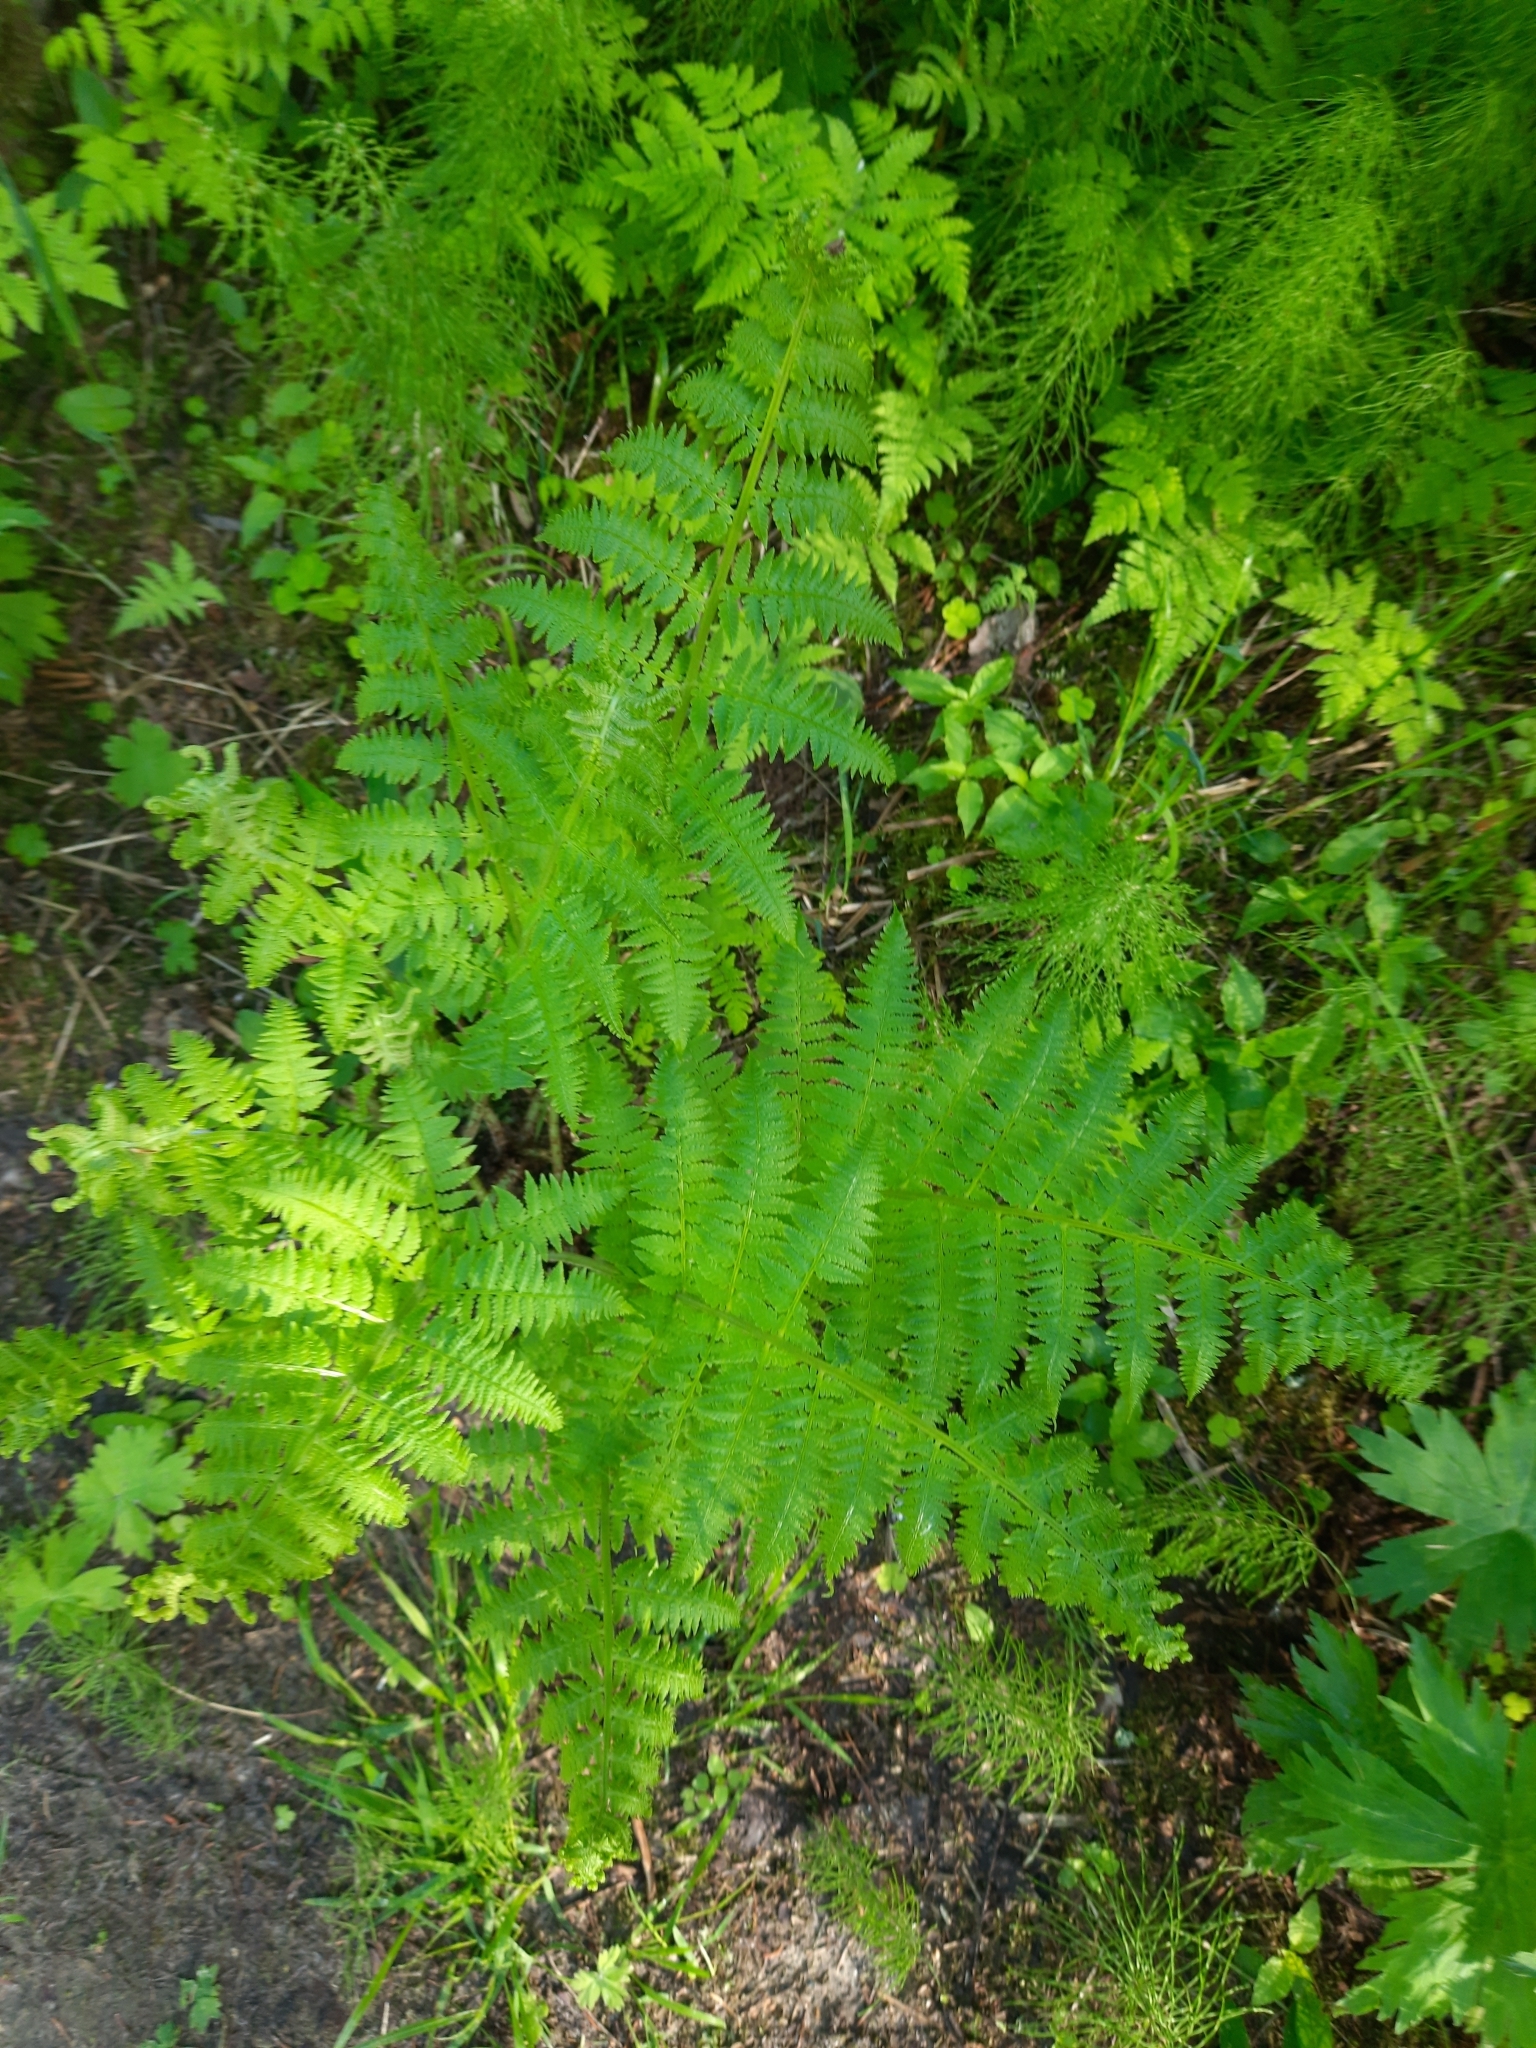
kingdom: Plantae
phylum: Tracheophyta
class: Polypodiopsida
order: Polypodiales
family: Athyriaceae
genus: Athyrium
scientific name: Athyrium filix-femina
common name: Lady fern
